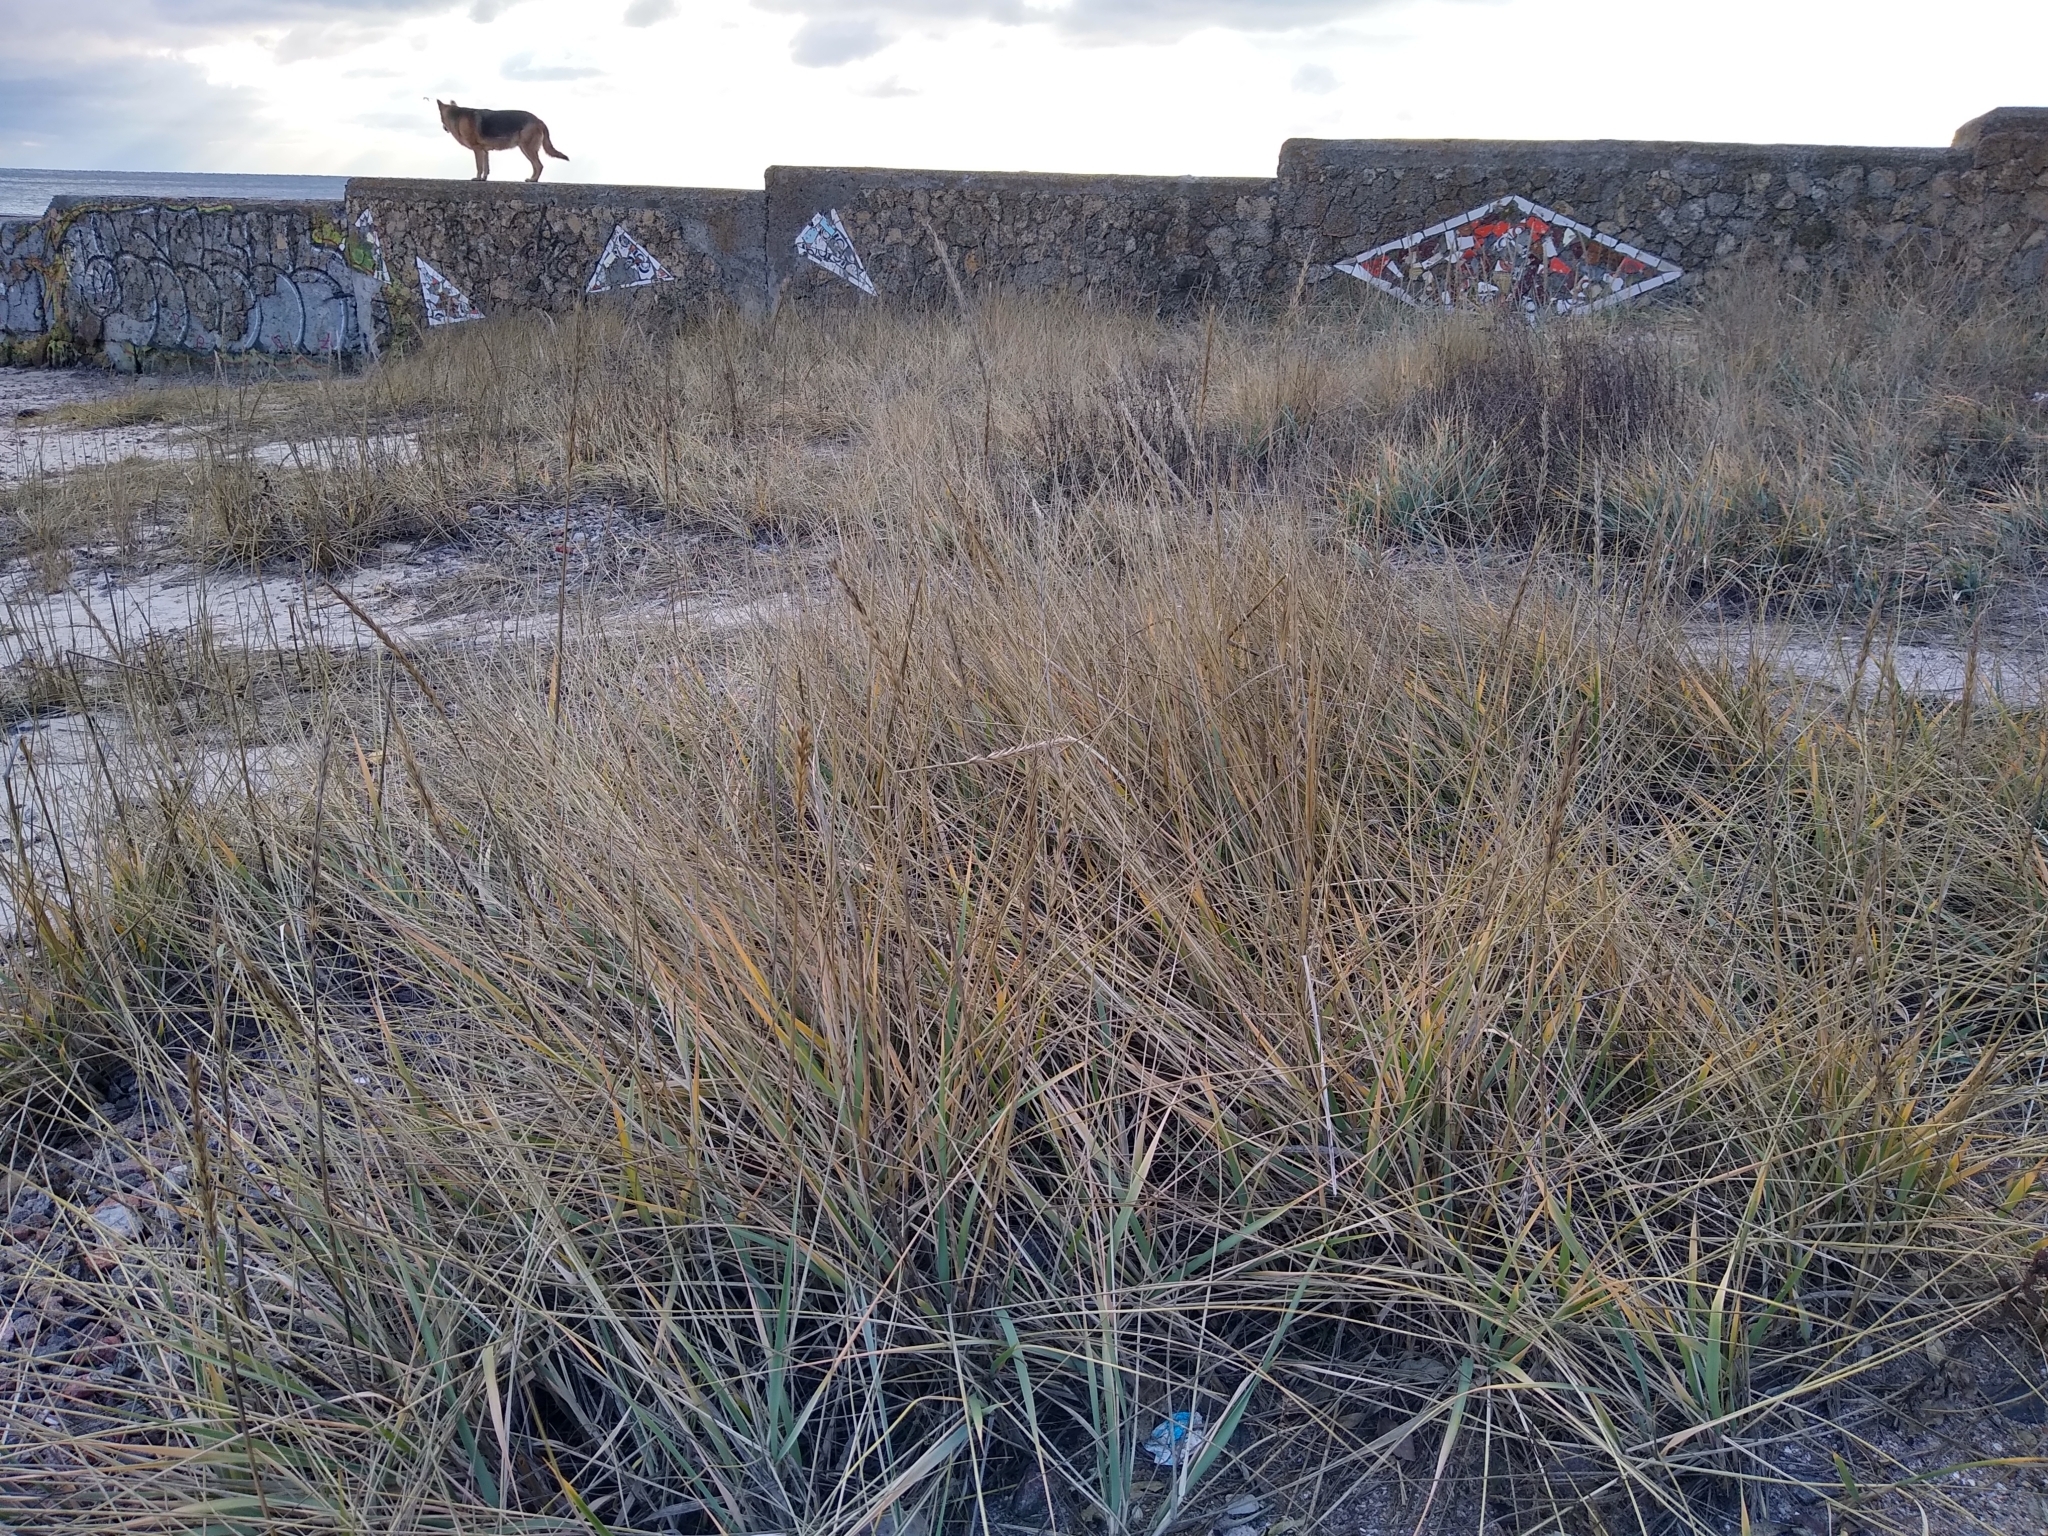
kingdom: Plantae
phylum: Tracheophyta
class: Liliopsida
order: Poales
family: Poaceae
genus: Leymus
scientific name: Leymus racemosus
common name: Mammoth wildrye
